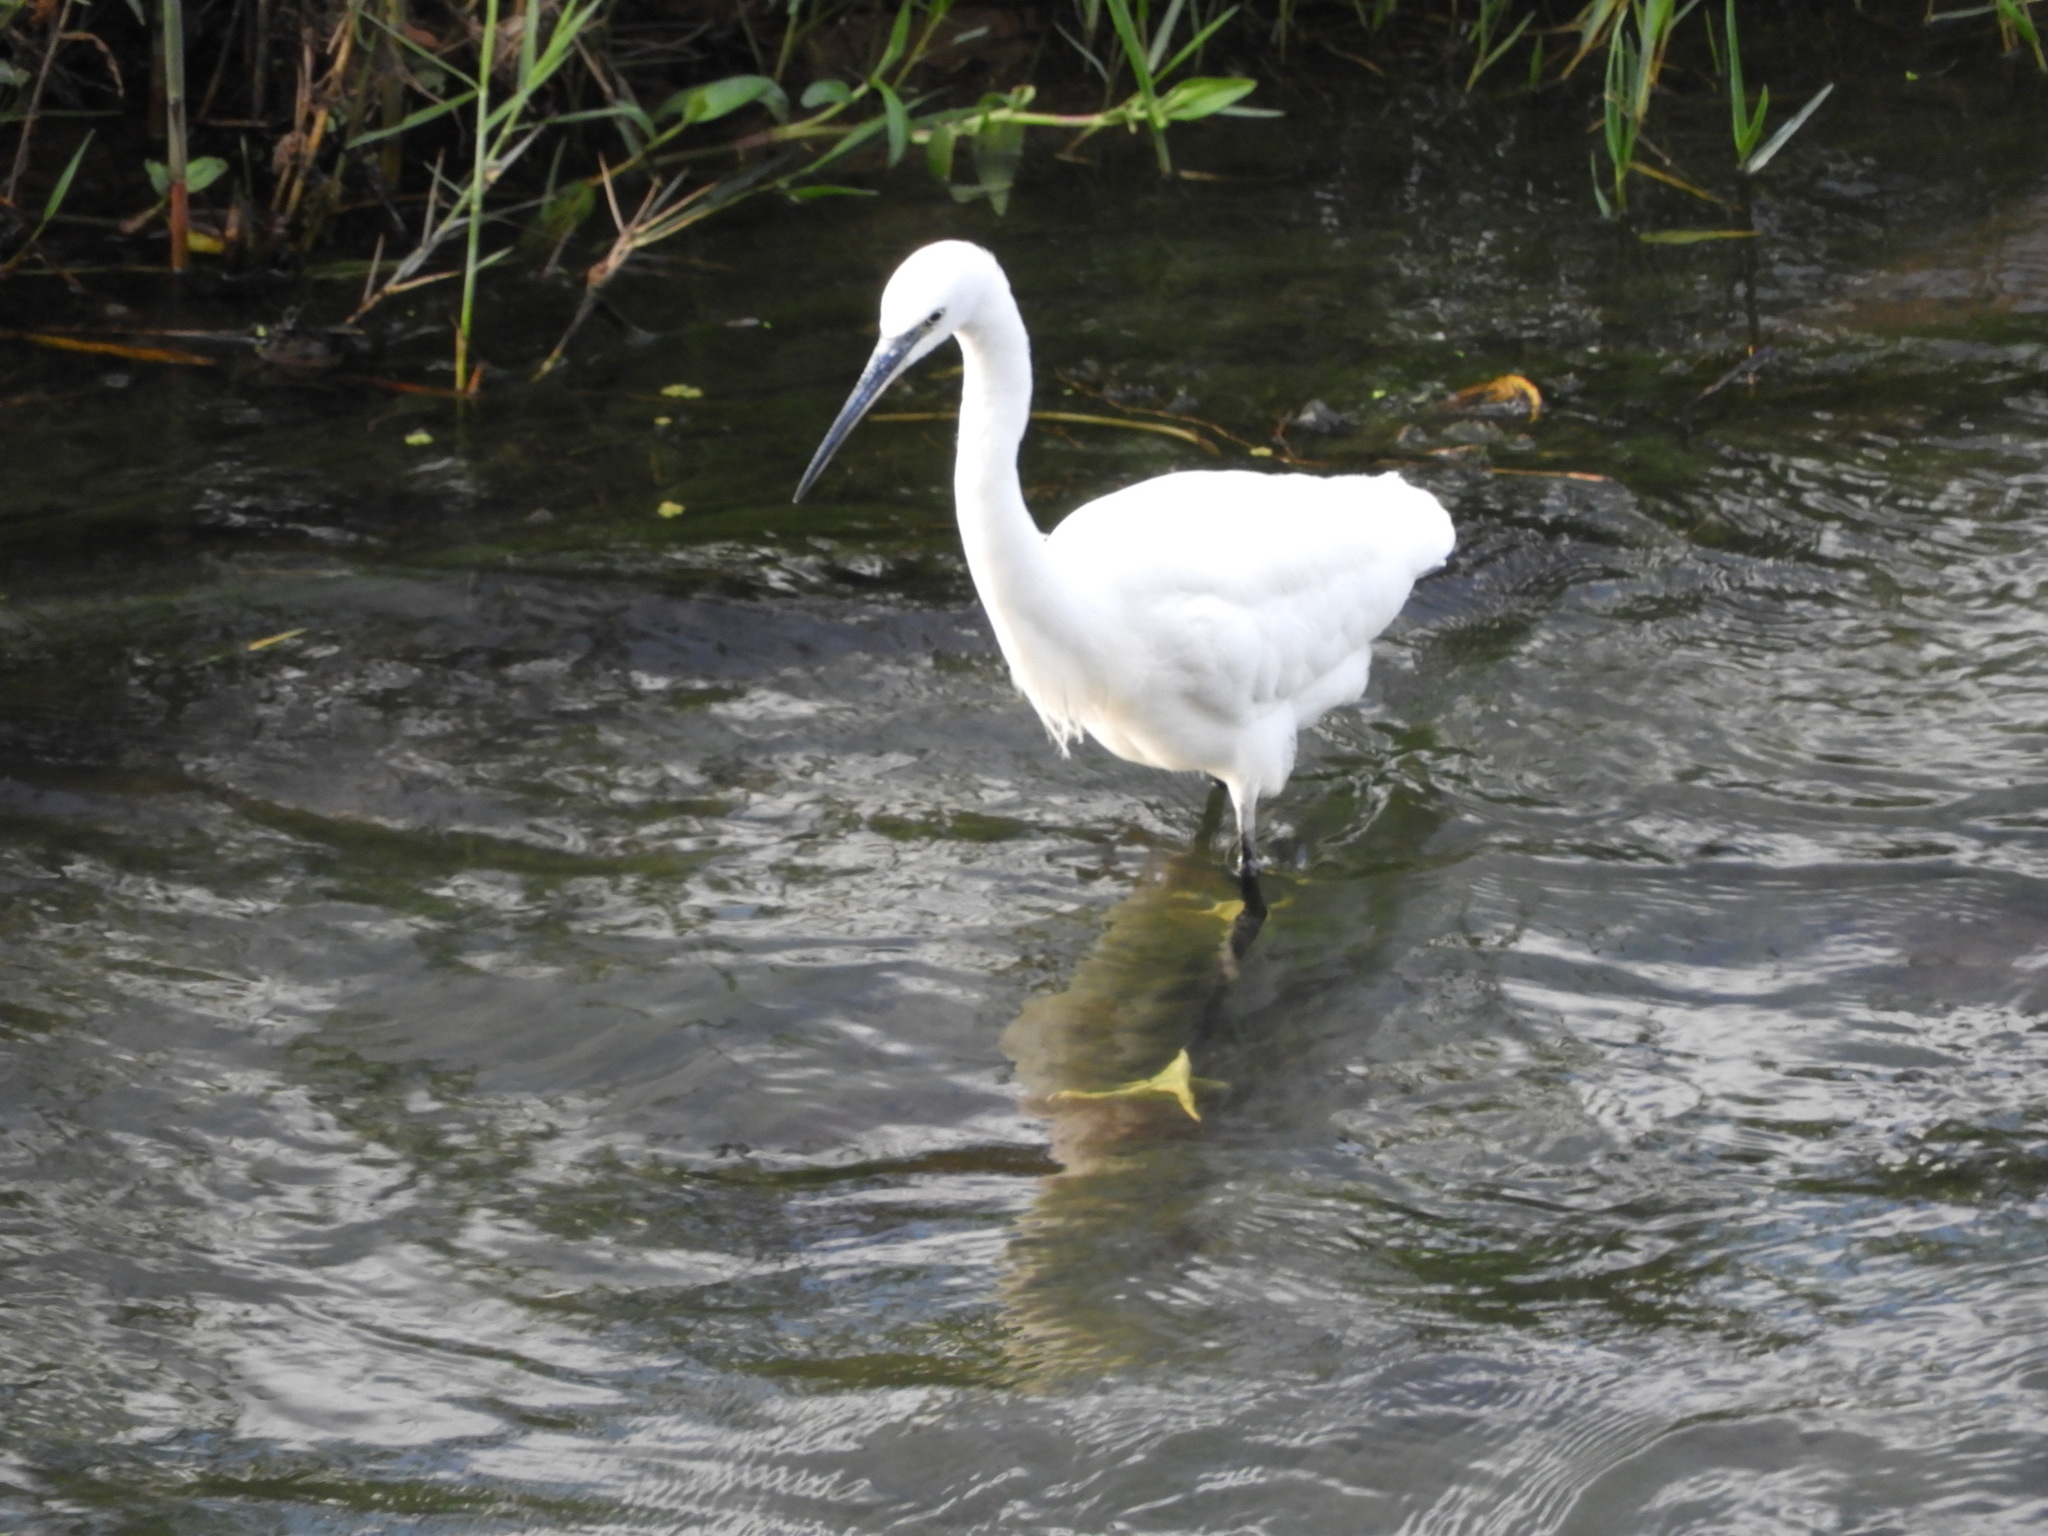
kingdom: Animalia
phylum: Chordata
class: Aves
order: Pelecaniformes
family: Ardeidae
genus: Egretta
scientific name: Egretta garzetta
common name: Little egret
